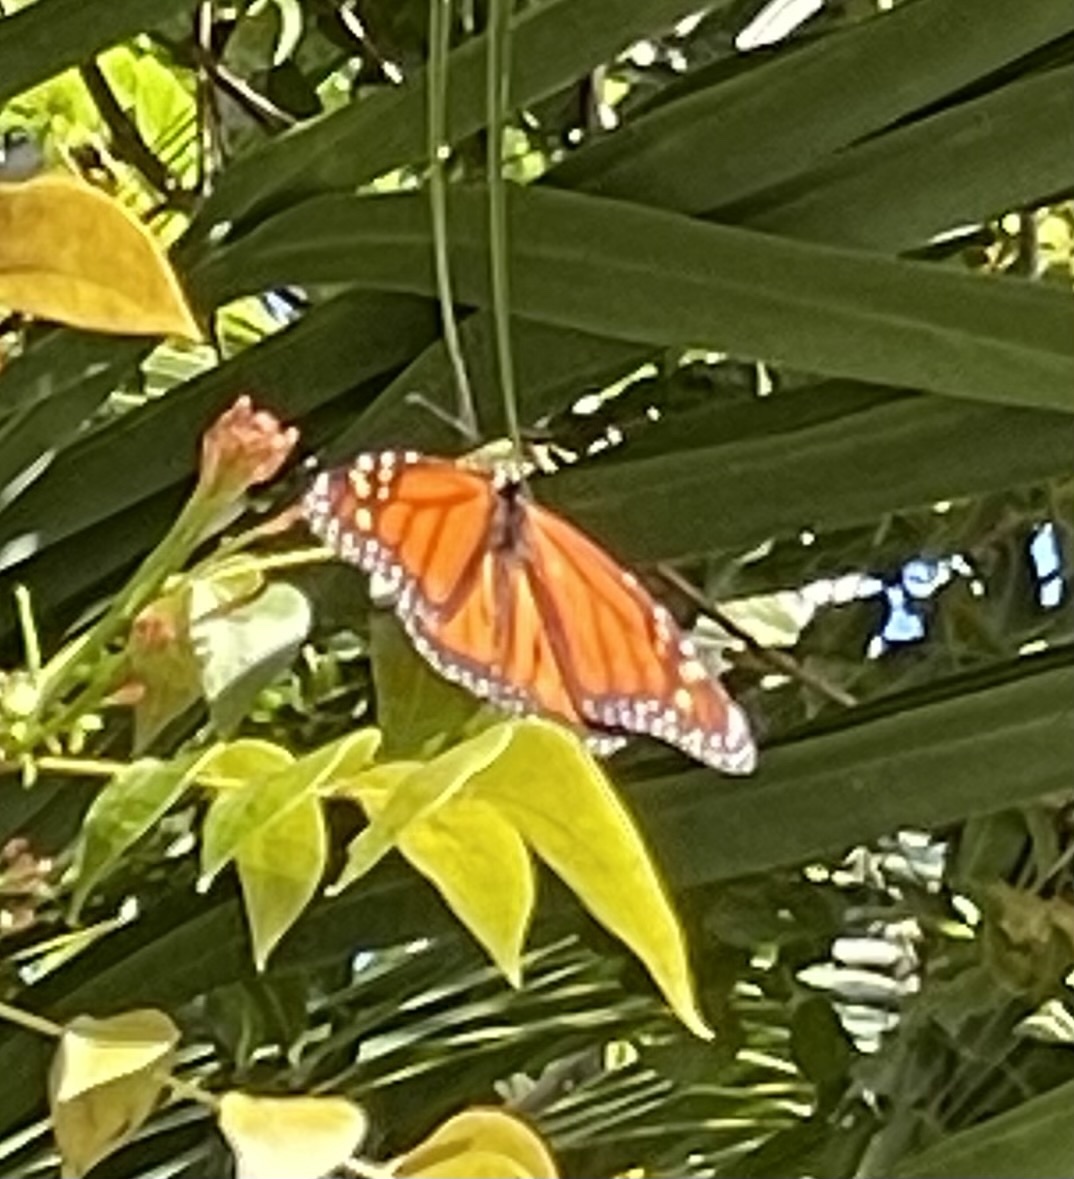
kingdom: Animalia
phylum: Arthropoda
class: Insecta
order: Lepidoptera
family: Nymphalidae
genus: Danaus
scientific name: Danaus plexippus
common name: Monarch
